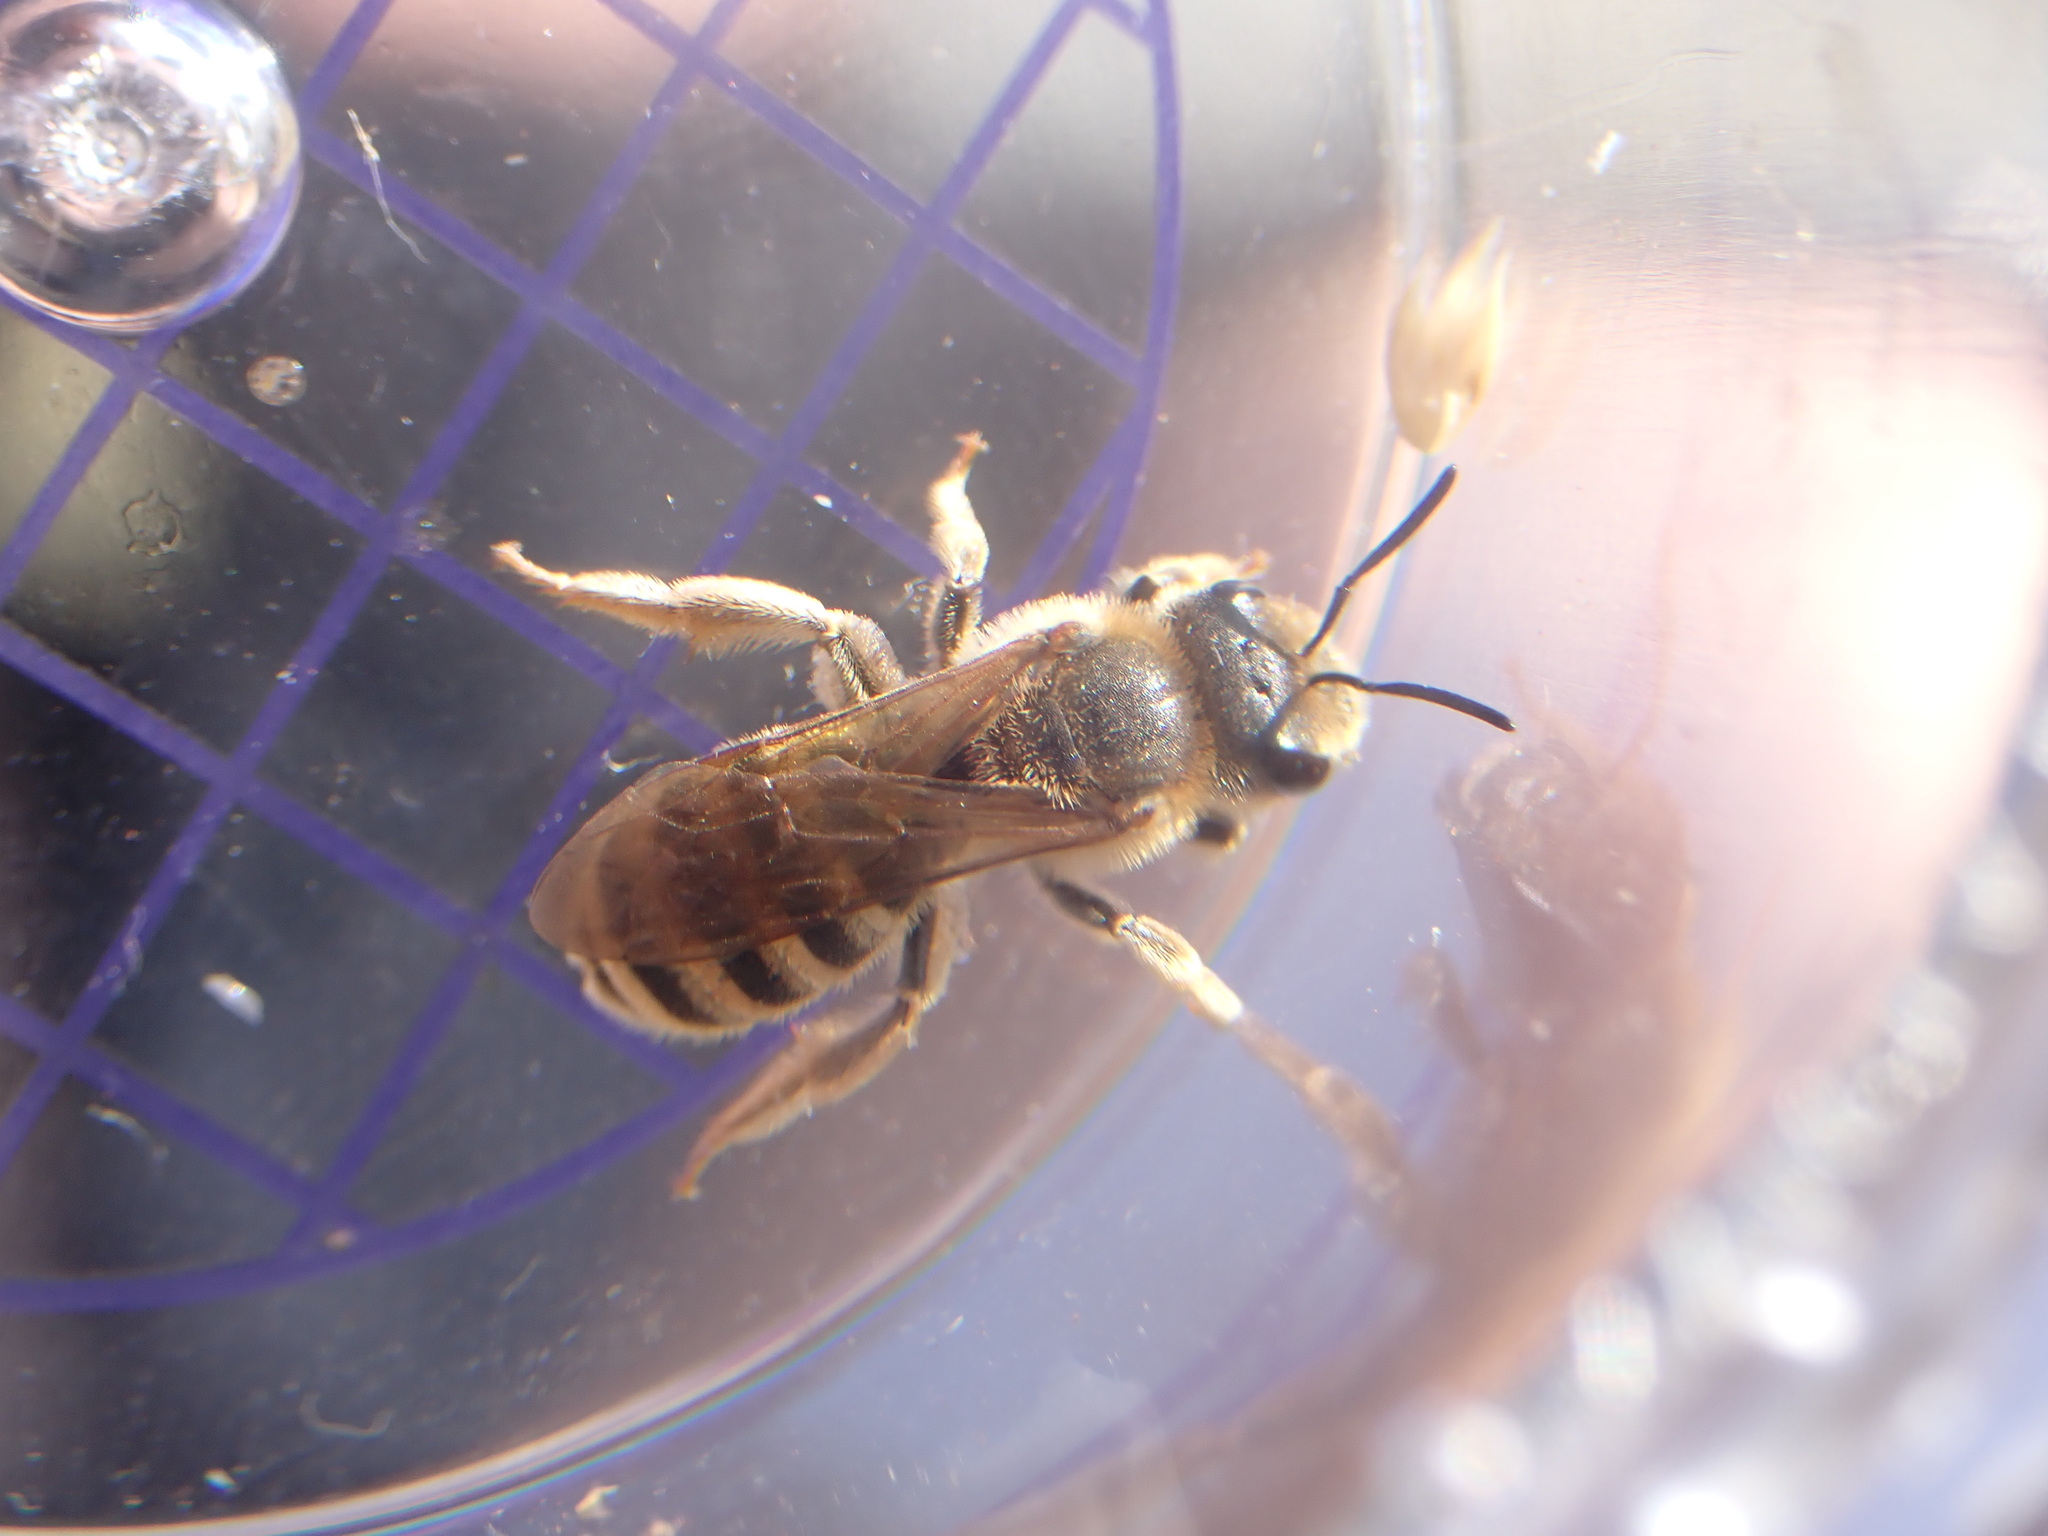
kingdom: Animalia
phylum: Arthropoda
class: Insecta
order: Hymenoptera
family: Halictidae
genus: Halictus
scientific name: Halictus scabiosae
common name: Great banded furrow bee
